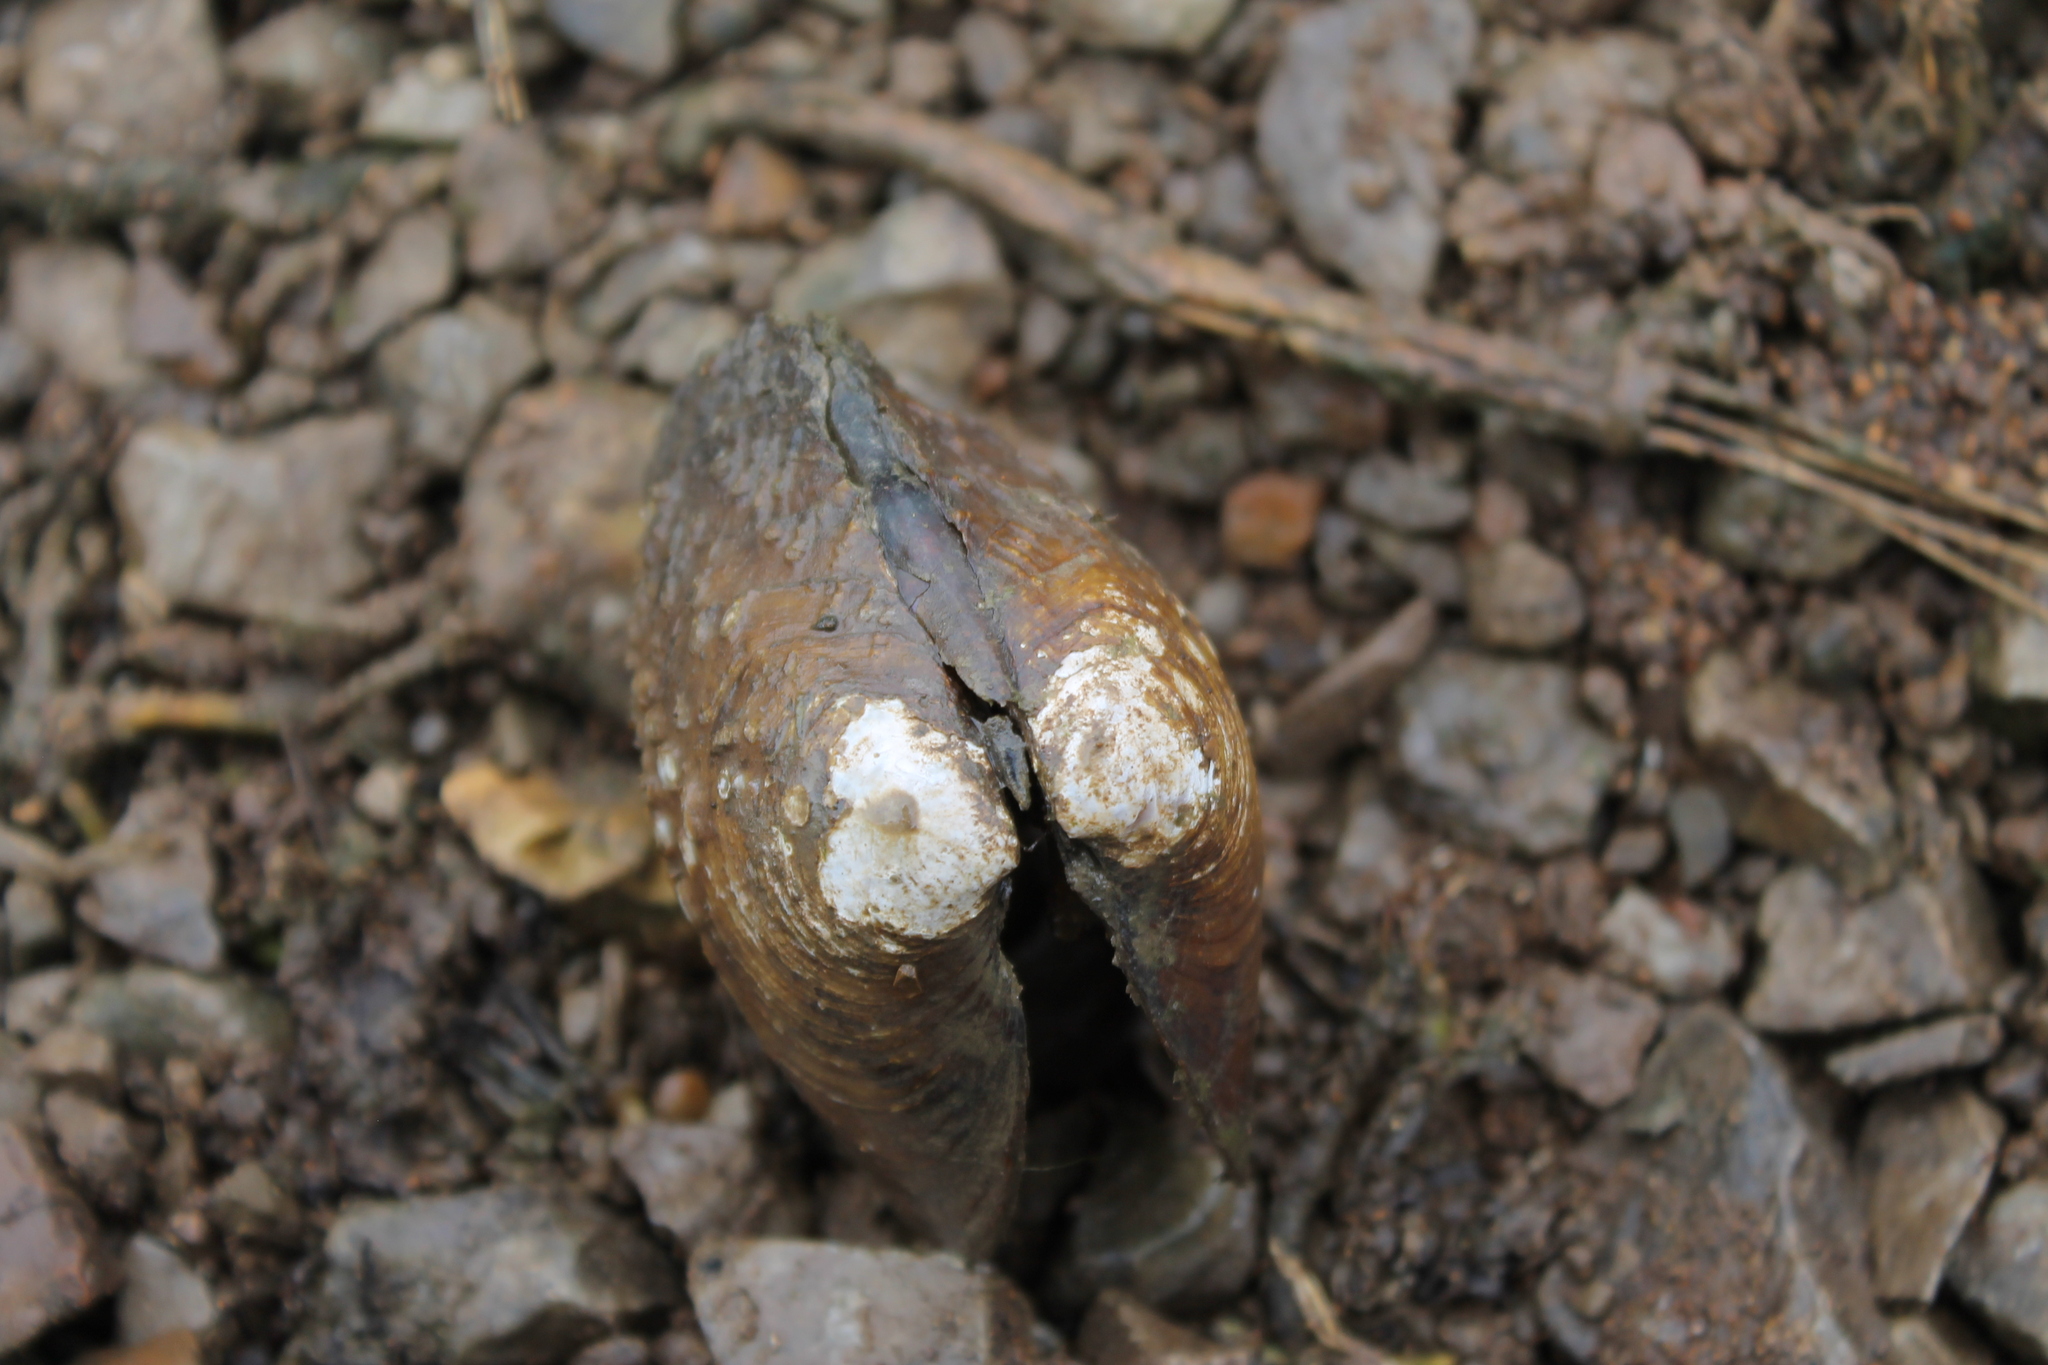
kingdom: Animalia
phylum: Mollusca
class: Bivalvia
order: Unionida
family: Unionidae
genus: Cyclonaias
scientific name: Cyclonaias tuberculata
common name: Purple wartyback
